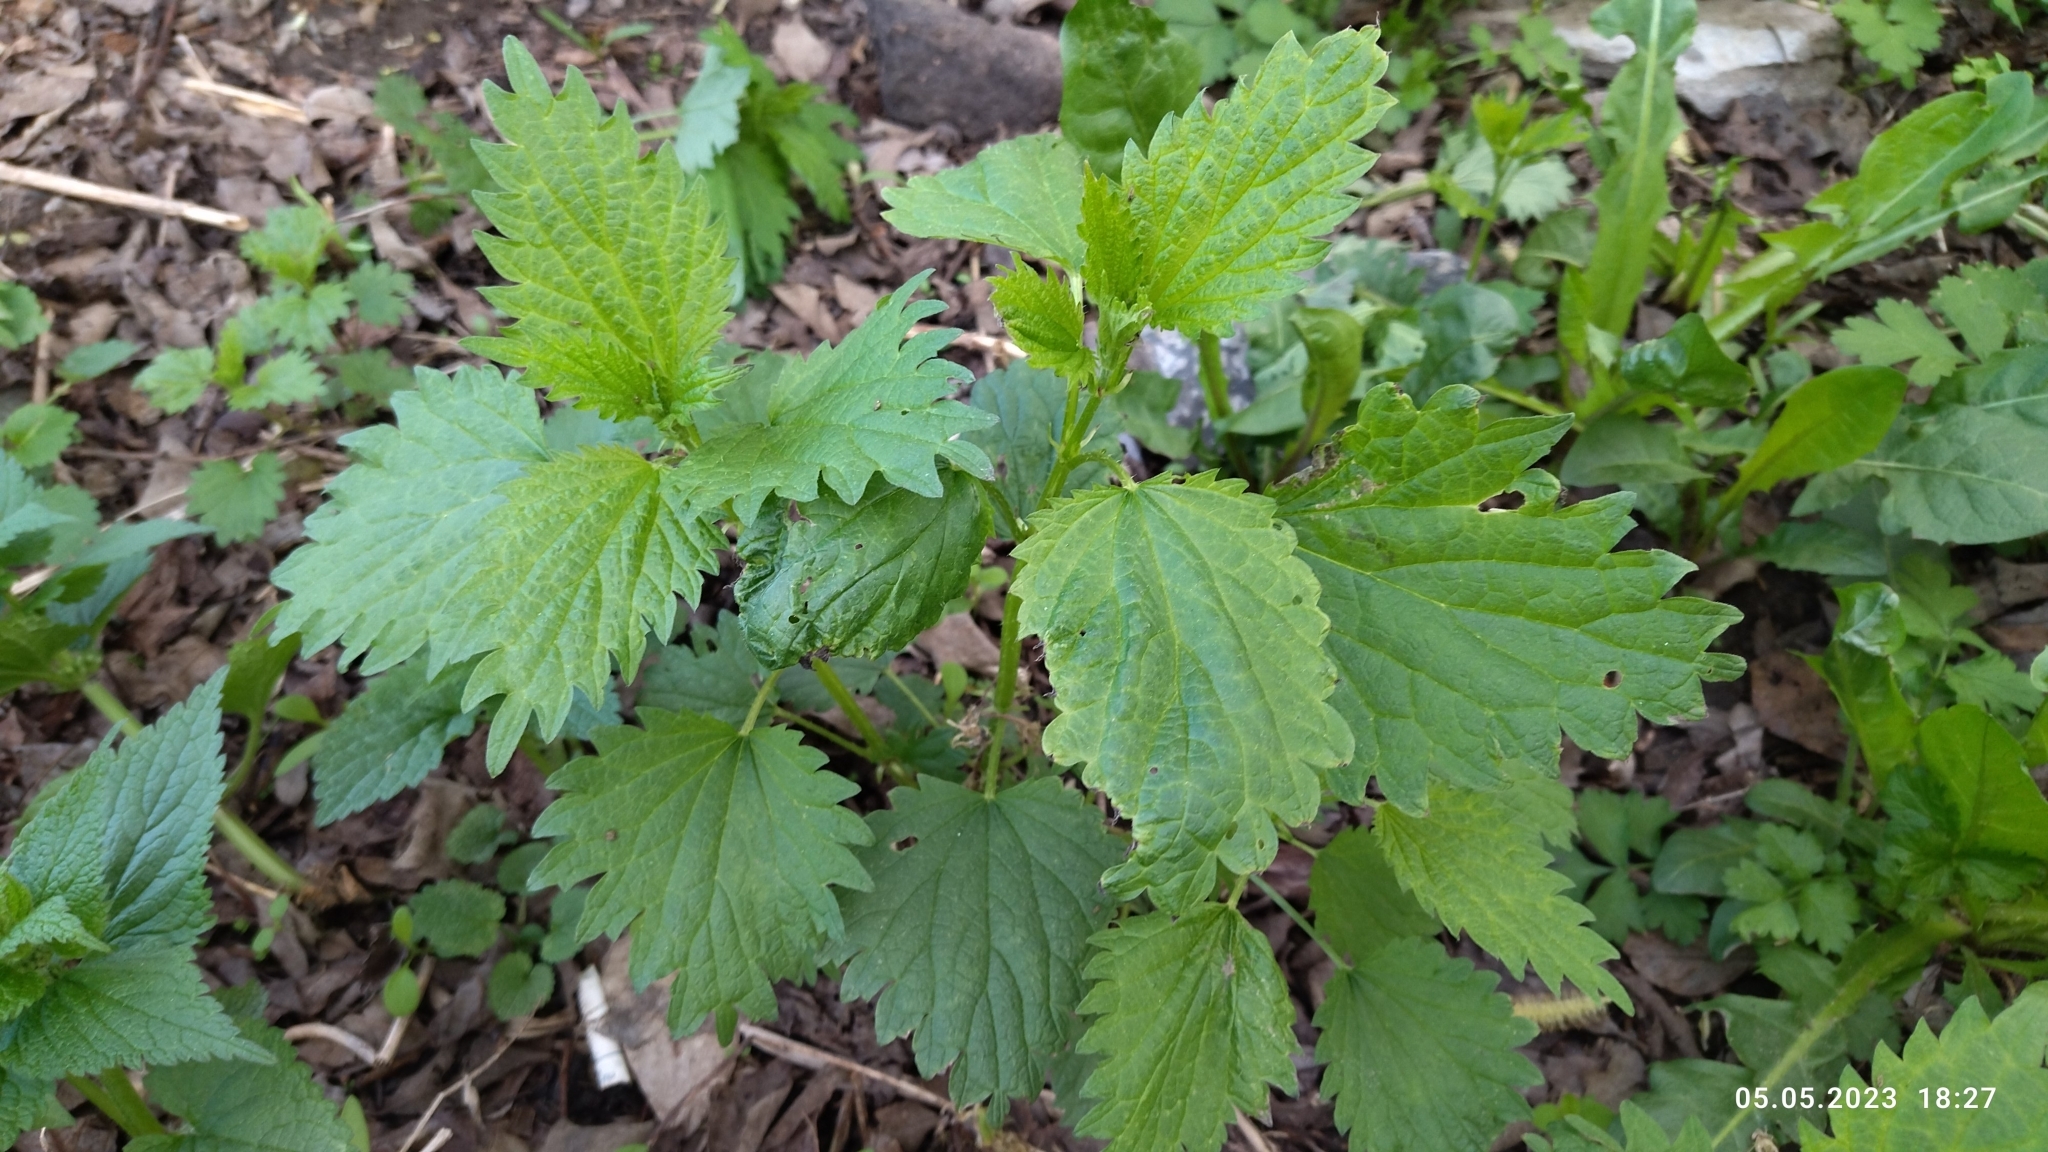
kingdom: Plantae
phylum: Tracheophyta
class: Magnoliopsida
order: Rosales
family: Urticaceae
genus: Urtica
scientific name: Urtica dioica
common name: Common nettle
